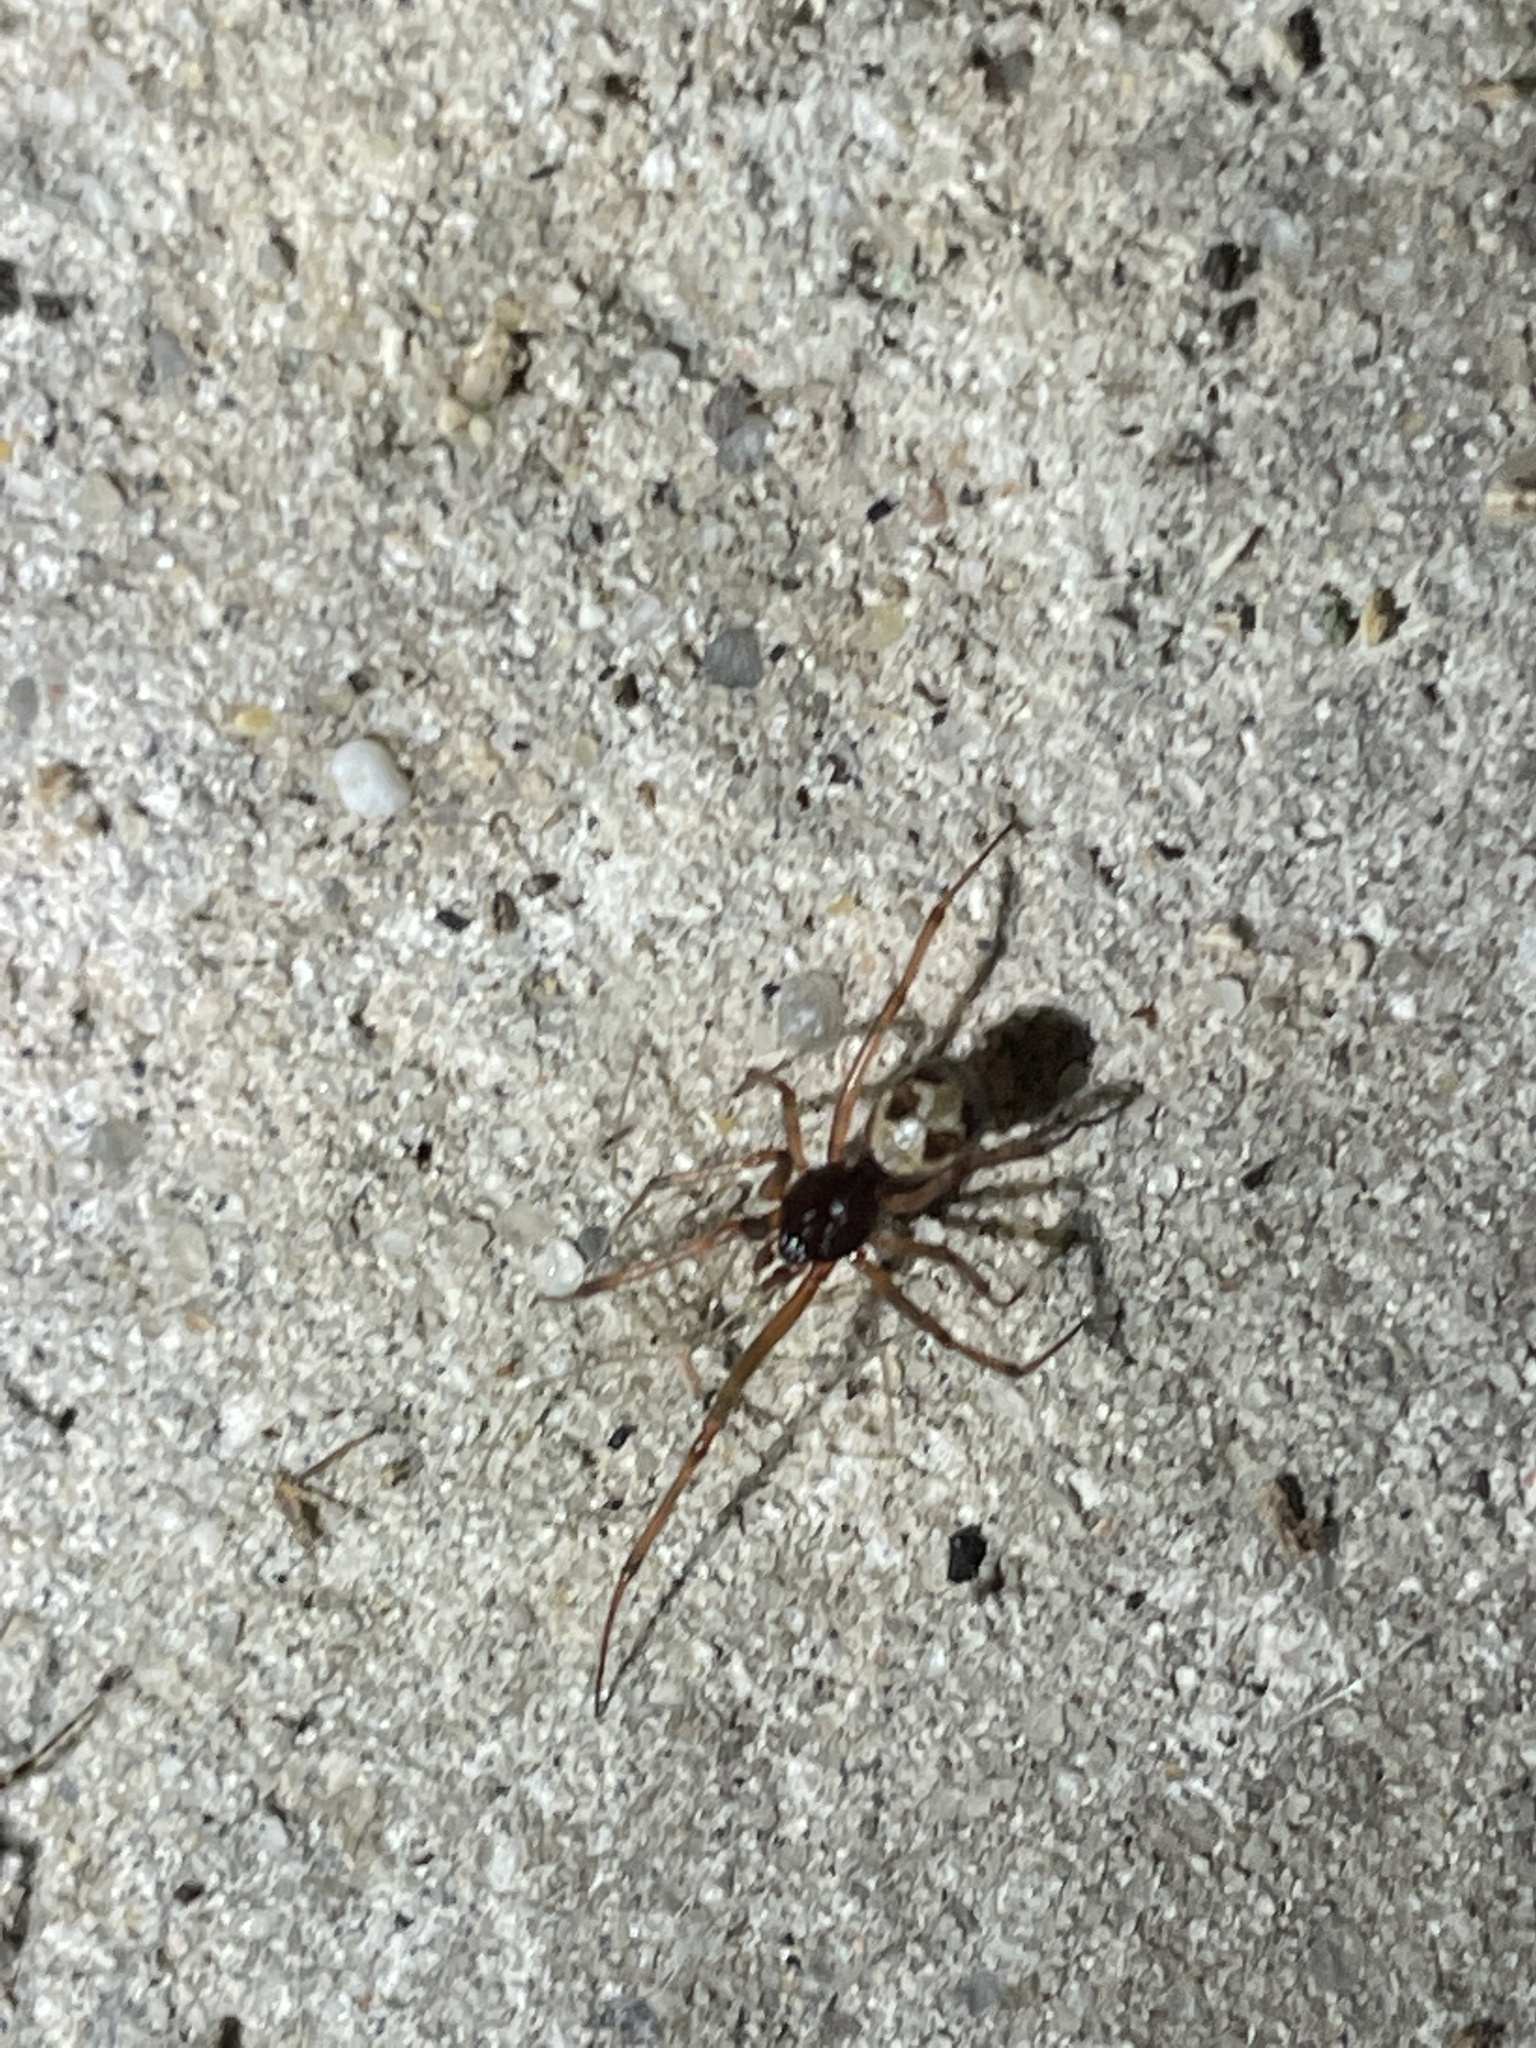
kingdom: Animalia
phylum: Arthropoda
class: Arachnida
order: Araneae
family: Theridiidae
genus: Steatoda
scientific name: Steatoda triangulosa
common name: Triangulate bud spider
